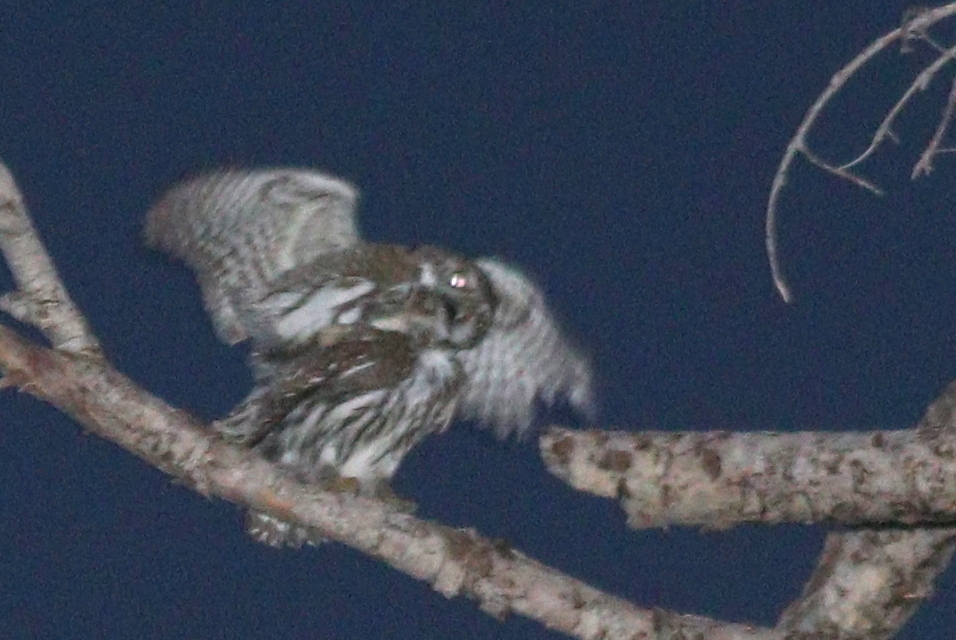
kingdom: Animalia
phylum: Chordata
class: Aves
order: Strigiformes
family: Strigidae
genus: Glaucidium
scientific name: Glaucidium gnoma
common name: Northern pygmy-owl
